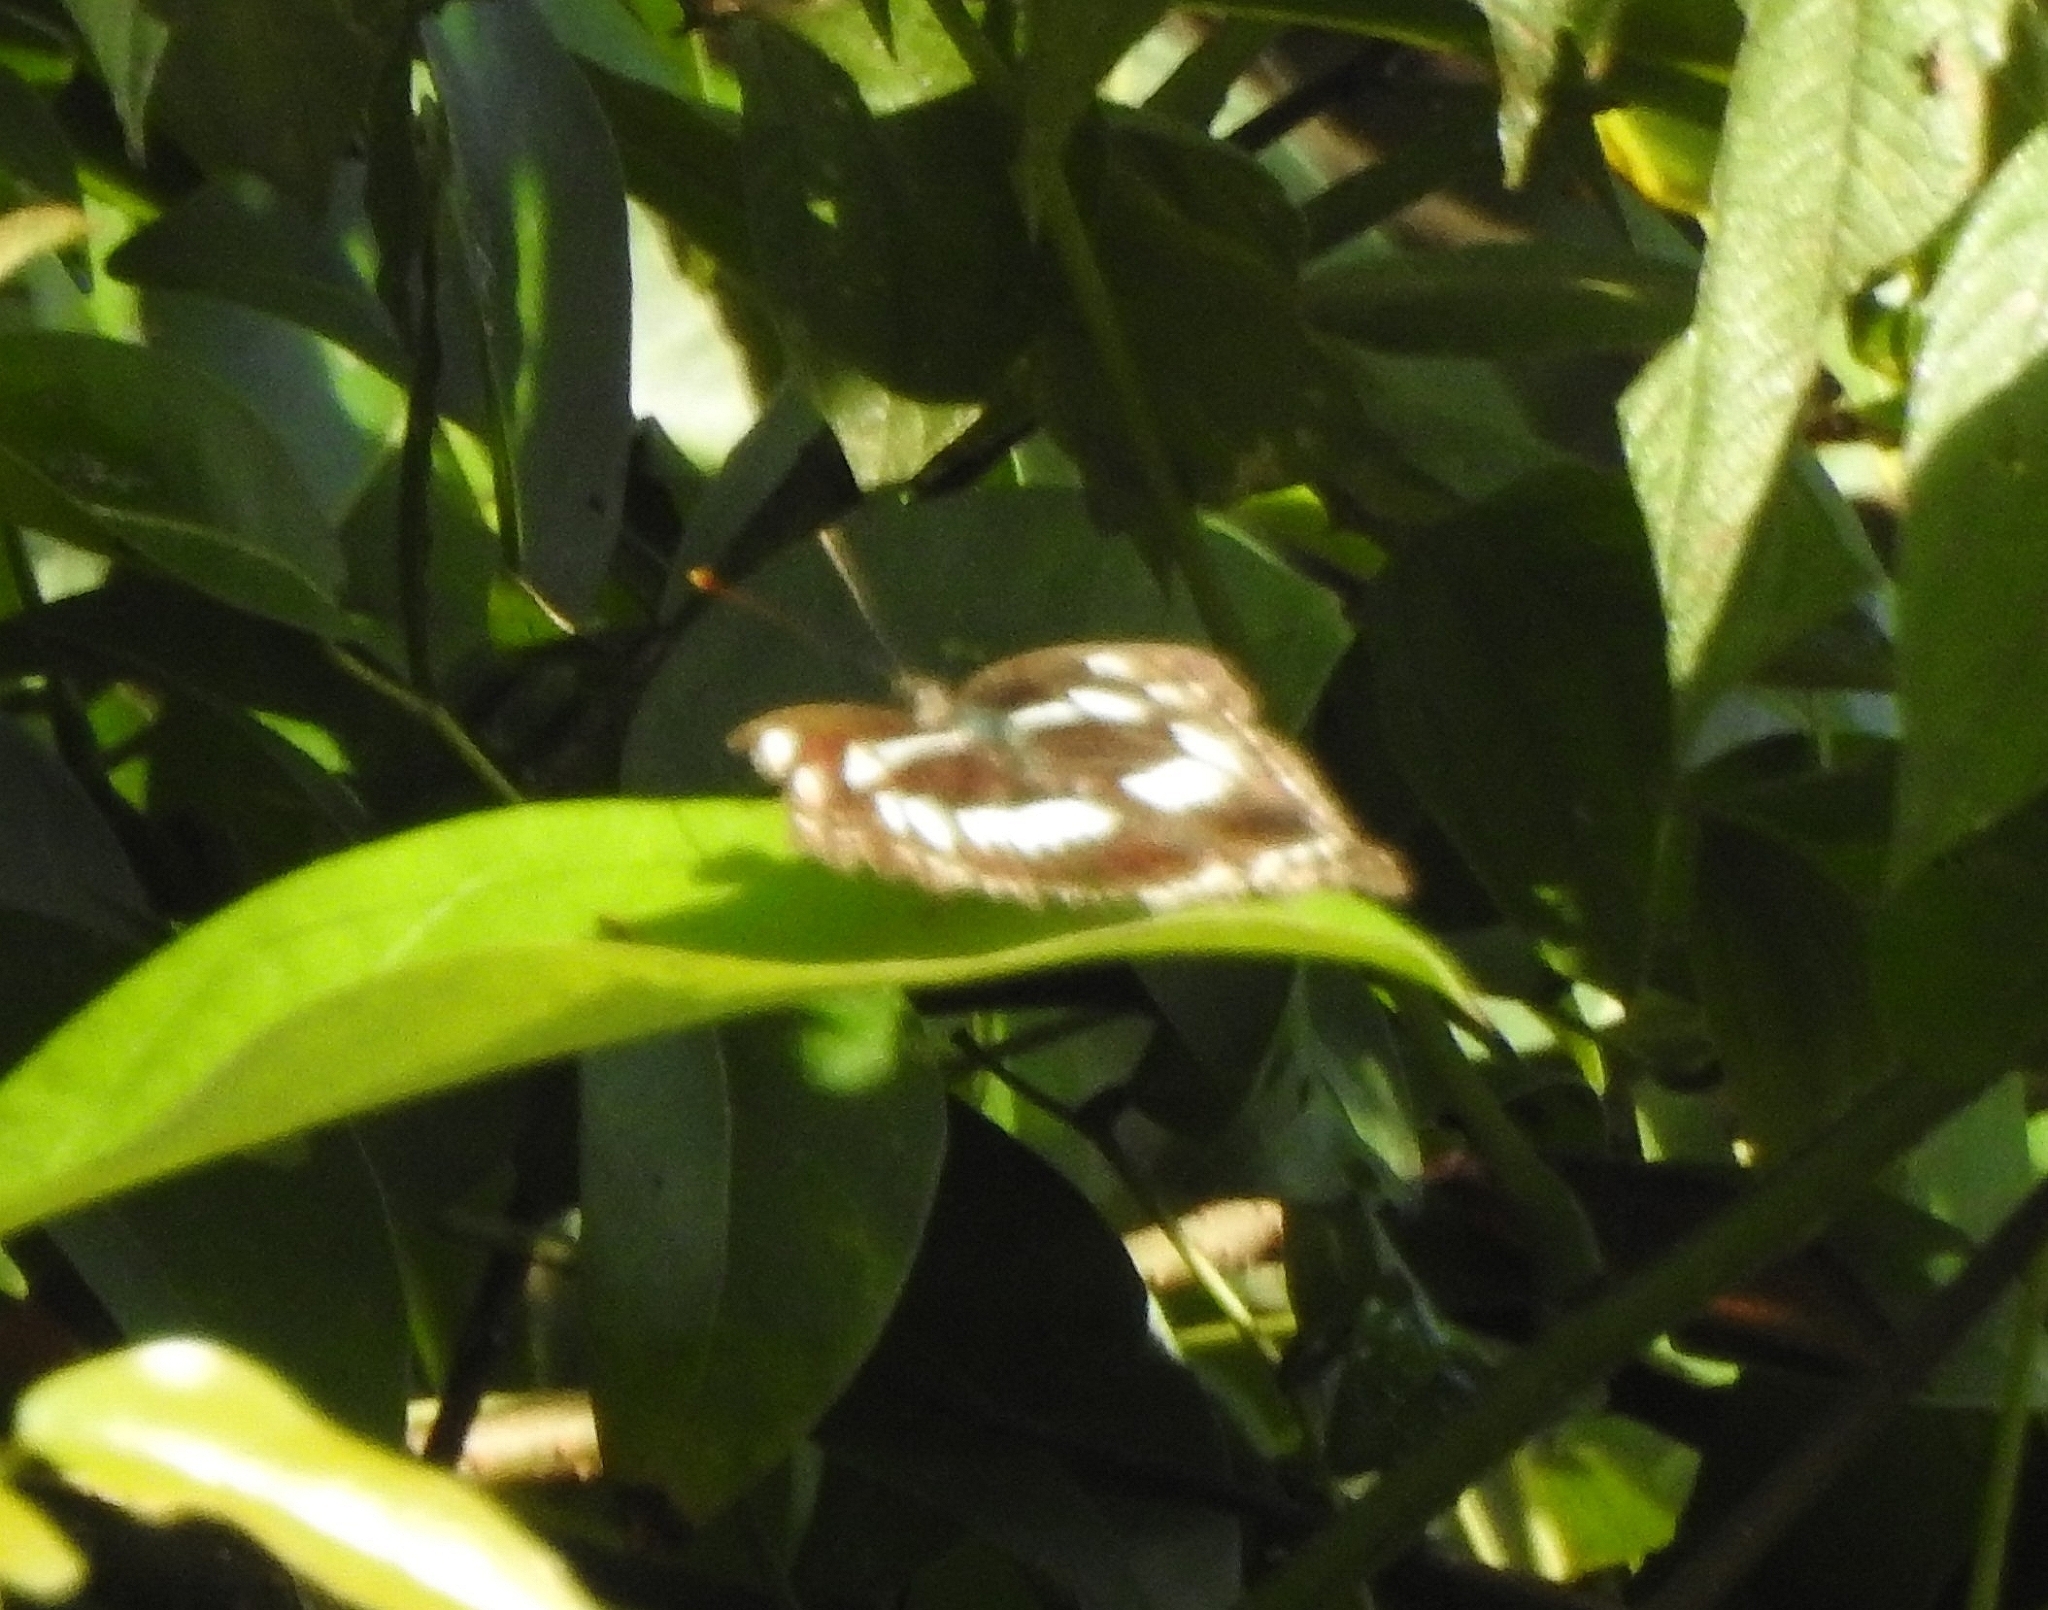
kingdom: Animalia
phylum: Arthropoda
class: Insecta
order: Lepidoptera
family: Nymphalidae
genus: Neptis
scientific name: Neptis jumbah
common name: Chestnut-streaked sailer
